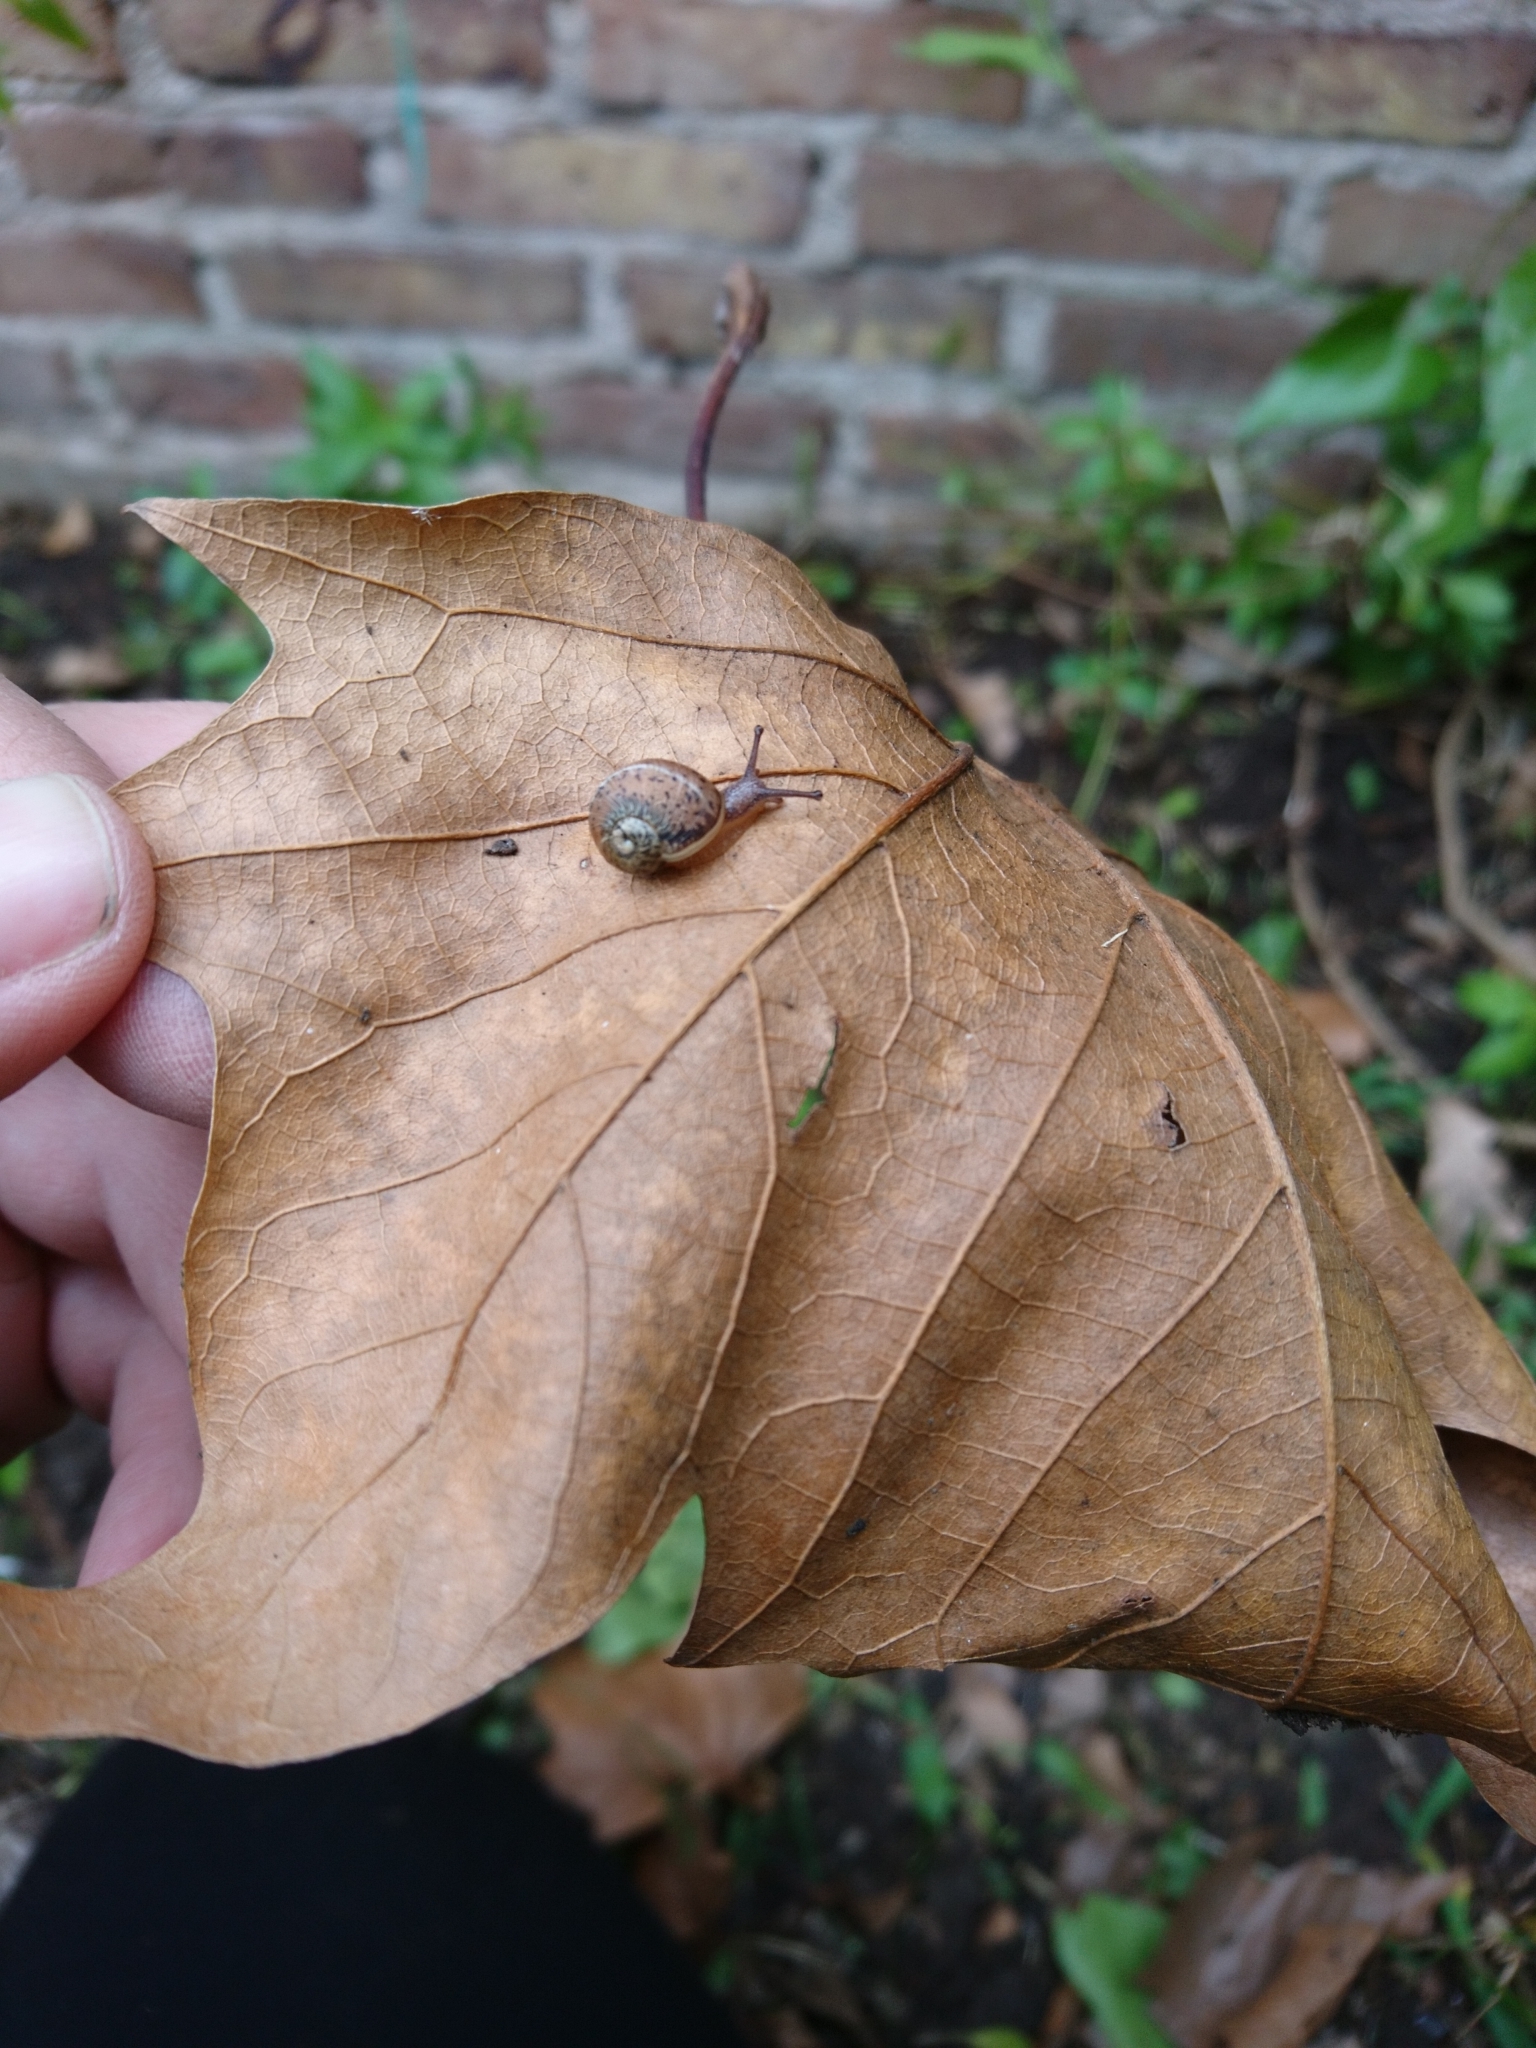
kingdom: Animalia
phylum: Mollusca
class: Gastropoda
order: Stylommatophora
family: Helicidae
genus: Cornu
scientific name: Cornu aspersum
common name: Brown garden snail
